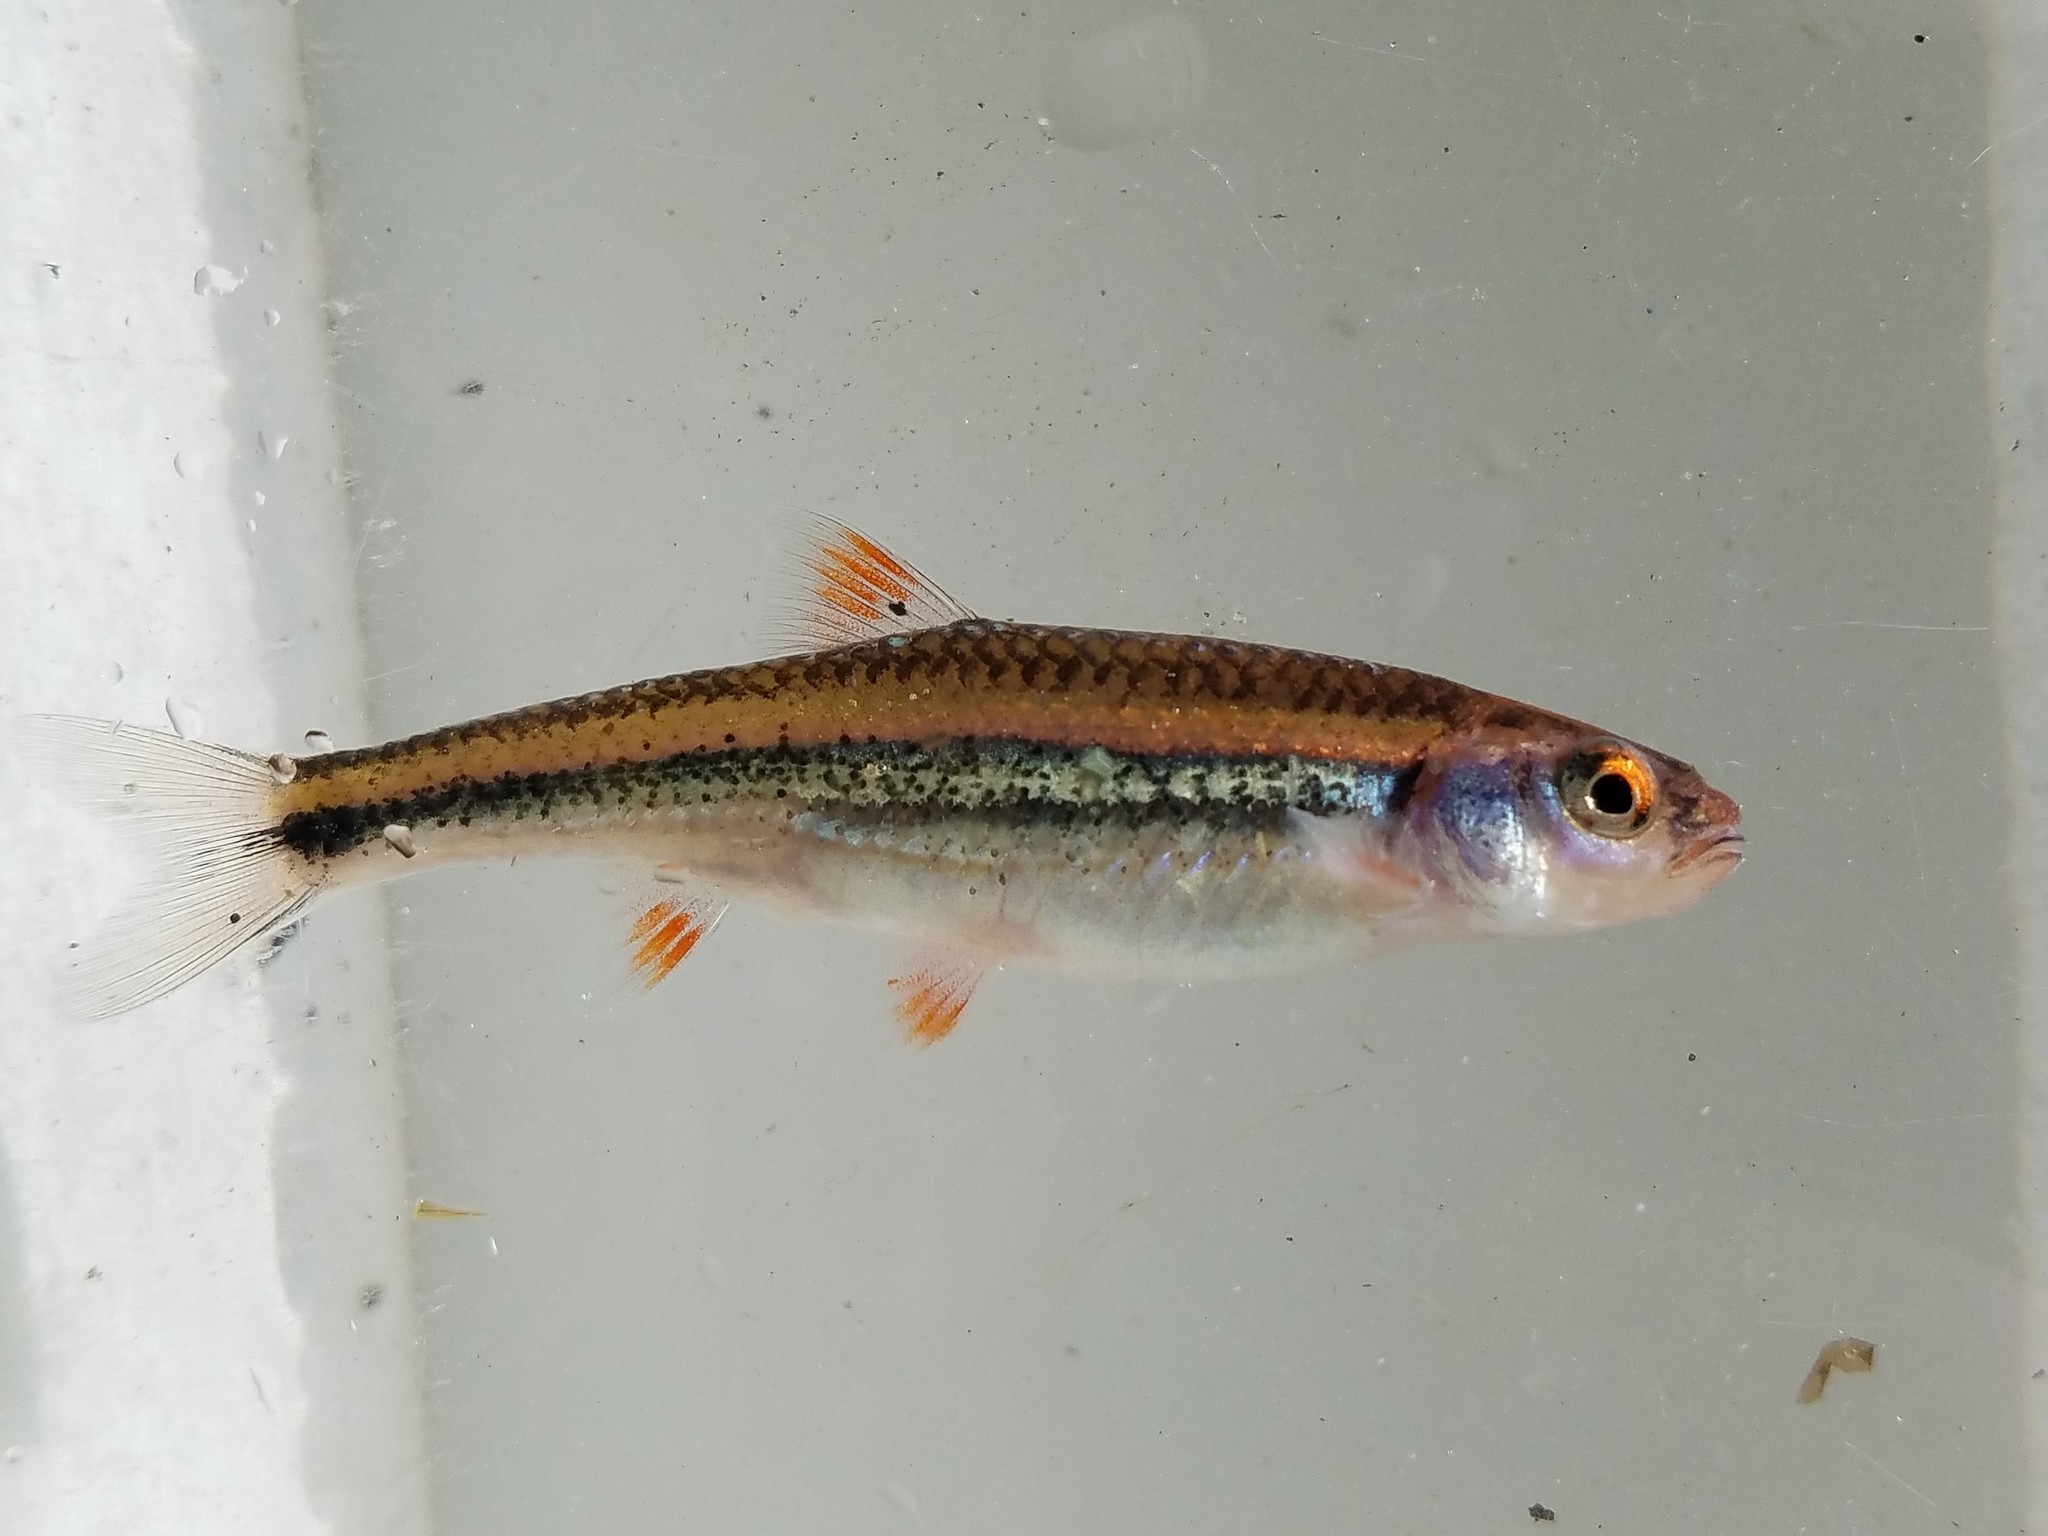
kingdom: Animalia
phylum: Chordata
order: Cypriniformes
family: Cyprinidae
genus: Notropis
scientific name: Notropis
